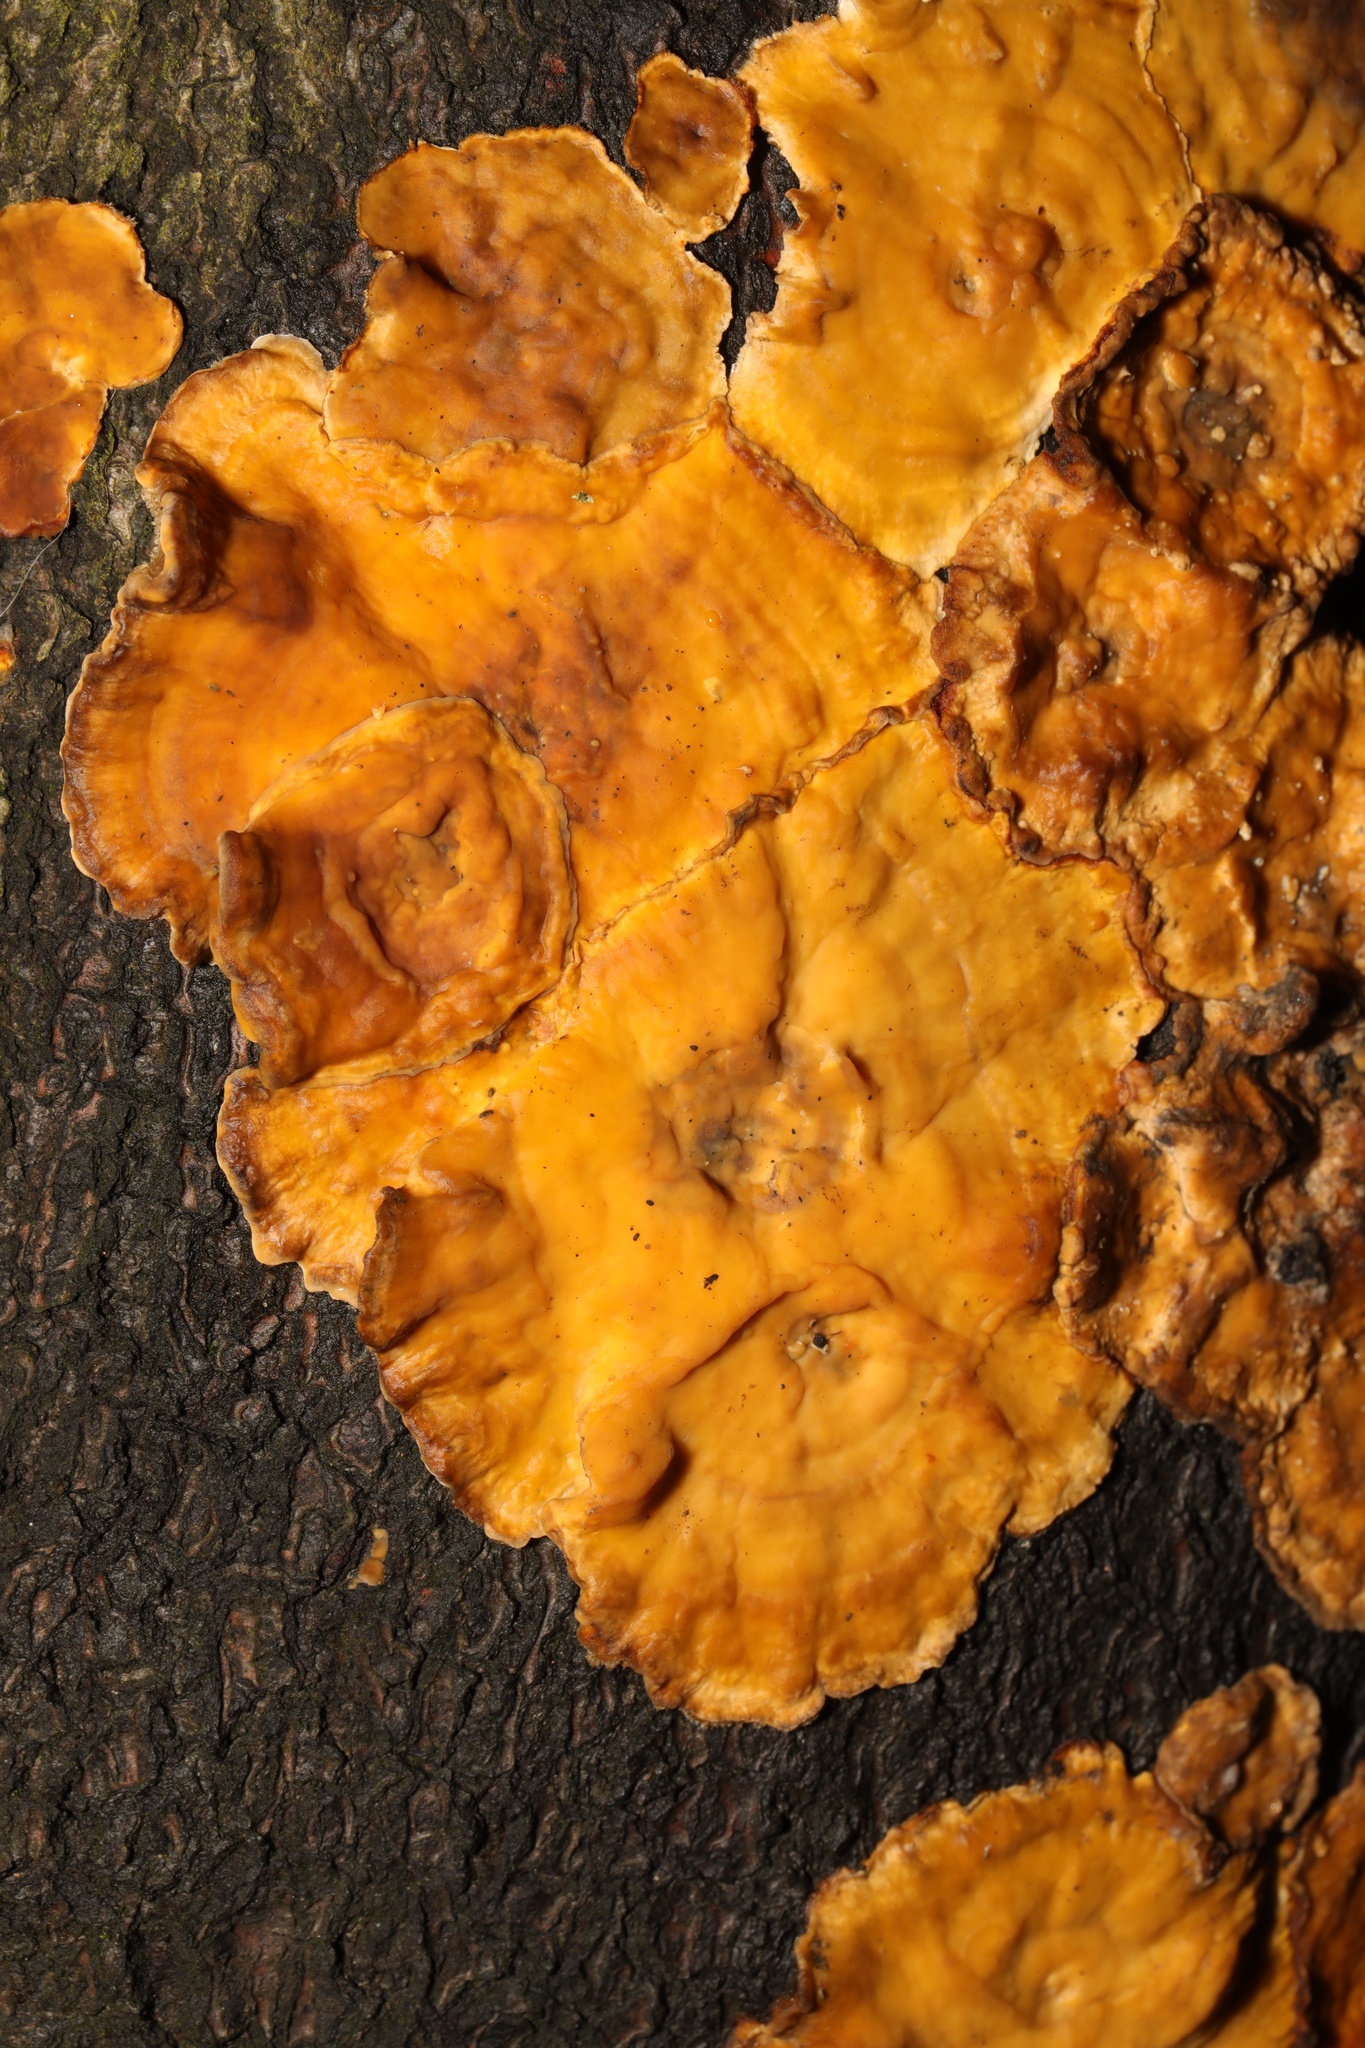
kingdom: Fungi
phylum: Basidiomycota
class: Agaricomycetes
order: Russulales
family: Stereaceae
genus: Stereum
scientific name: Stereum hirsutum
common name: Hairy curtain crust
